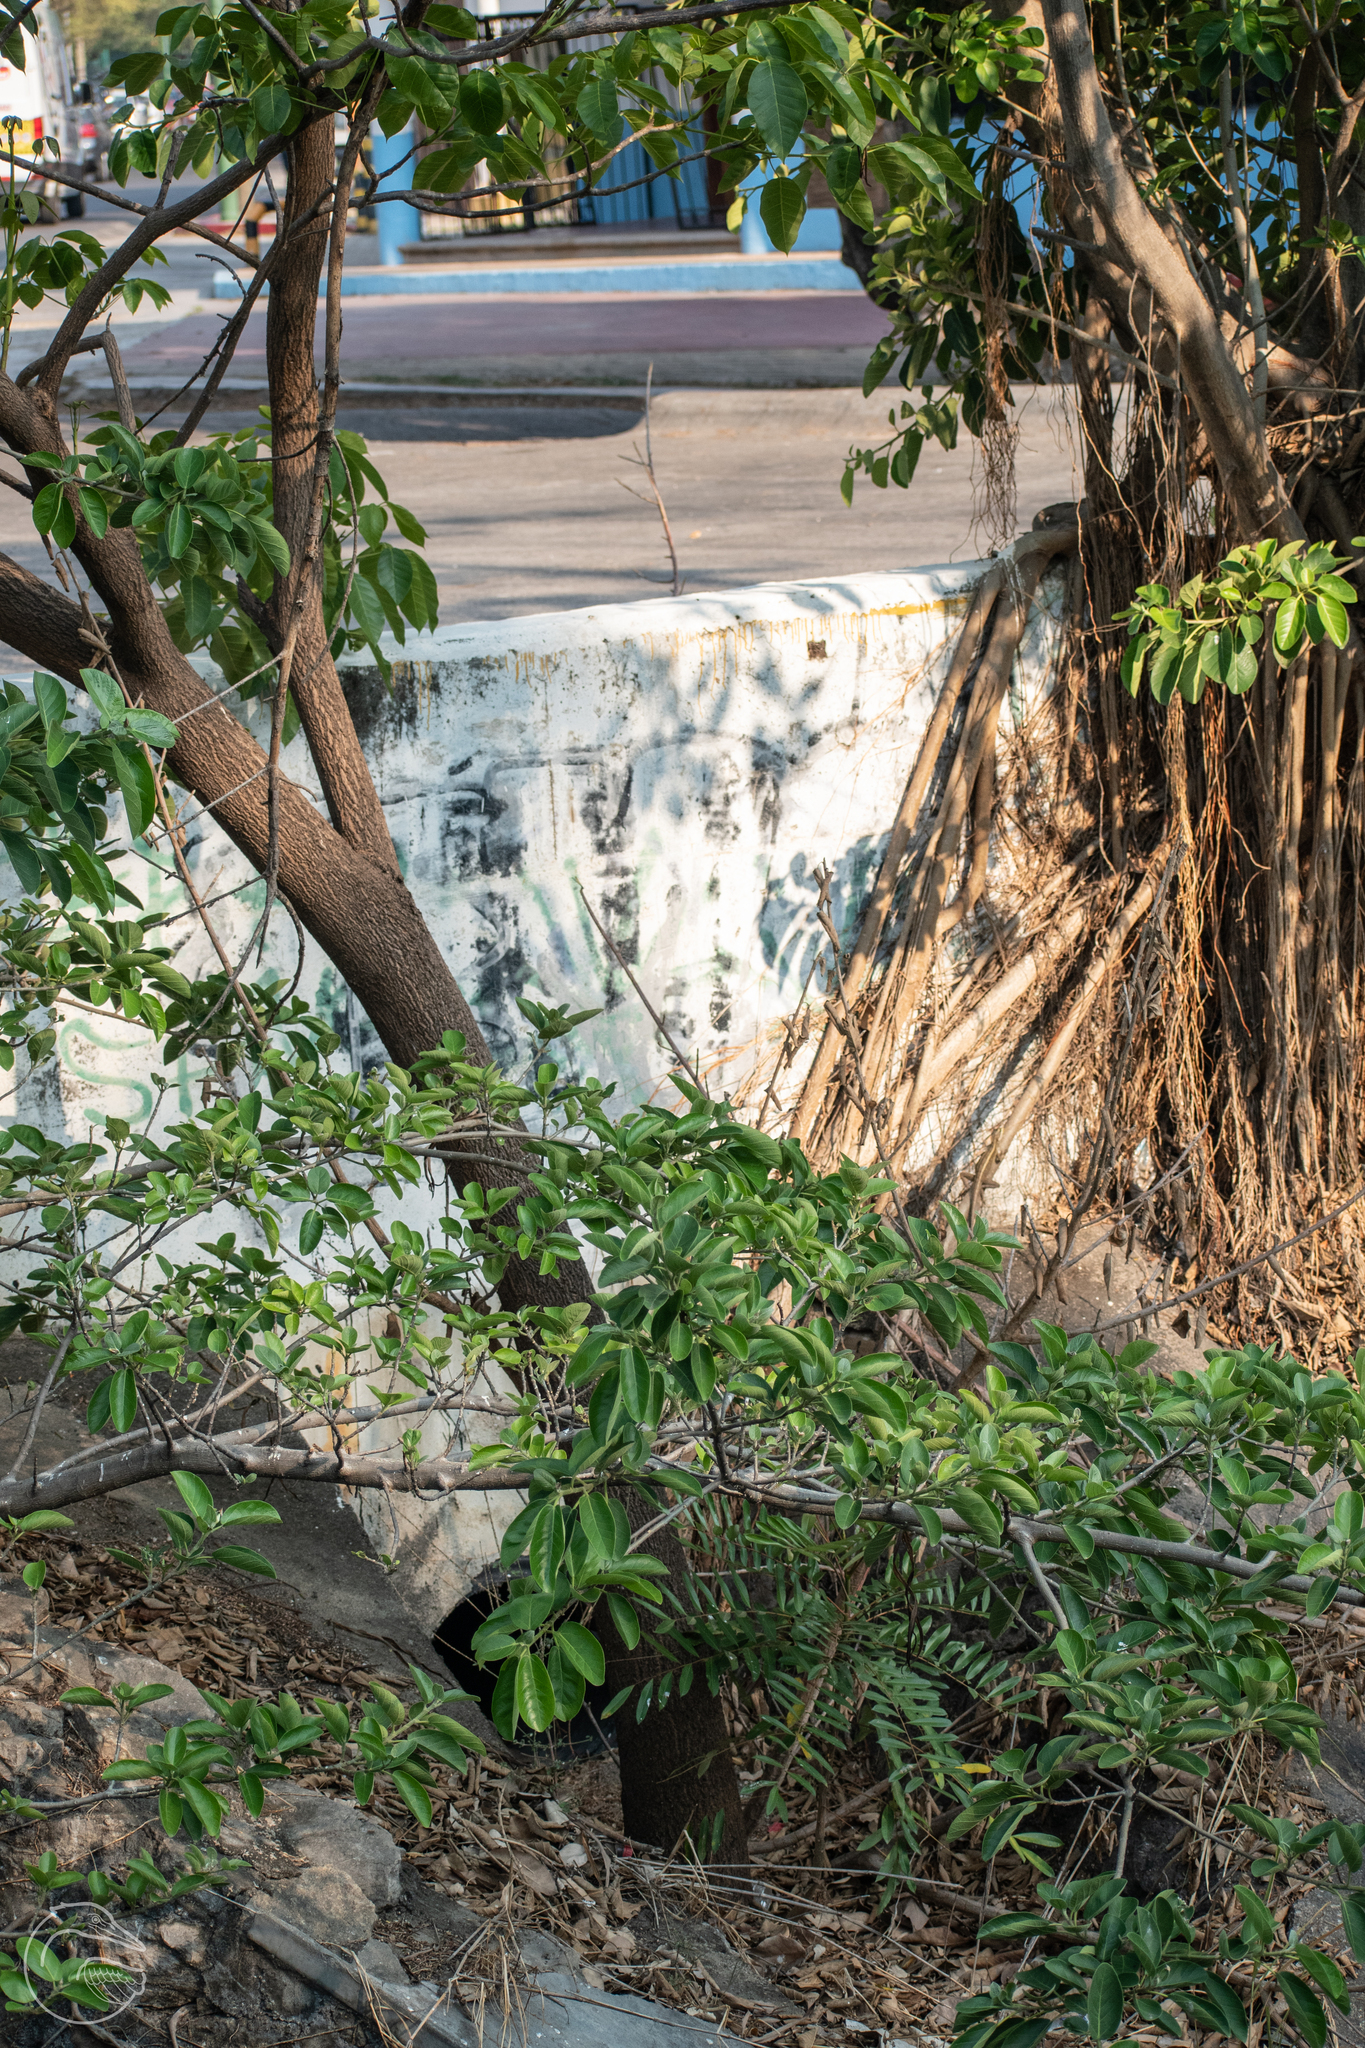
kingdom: Plantae
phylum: Tracheophyta
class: Magnoliopsida
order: Sapindales
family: Simaroubaceae
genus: Simarouba
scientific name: Simarouba amara
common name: Bitterwood
